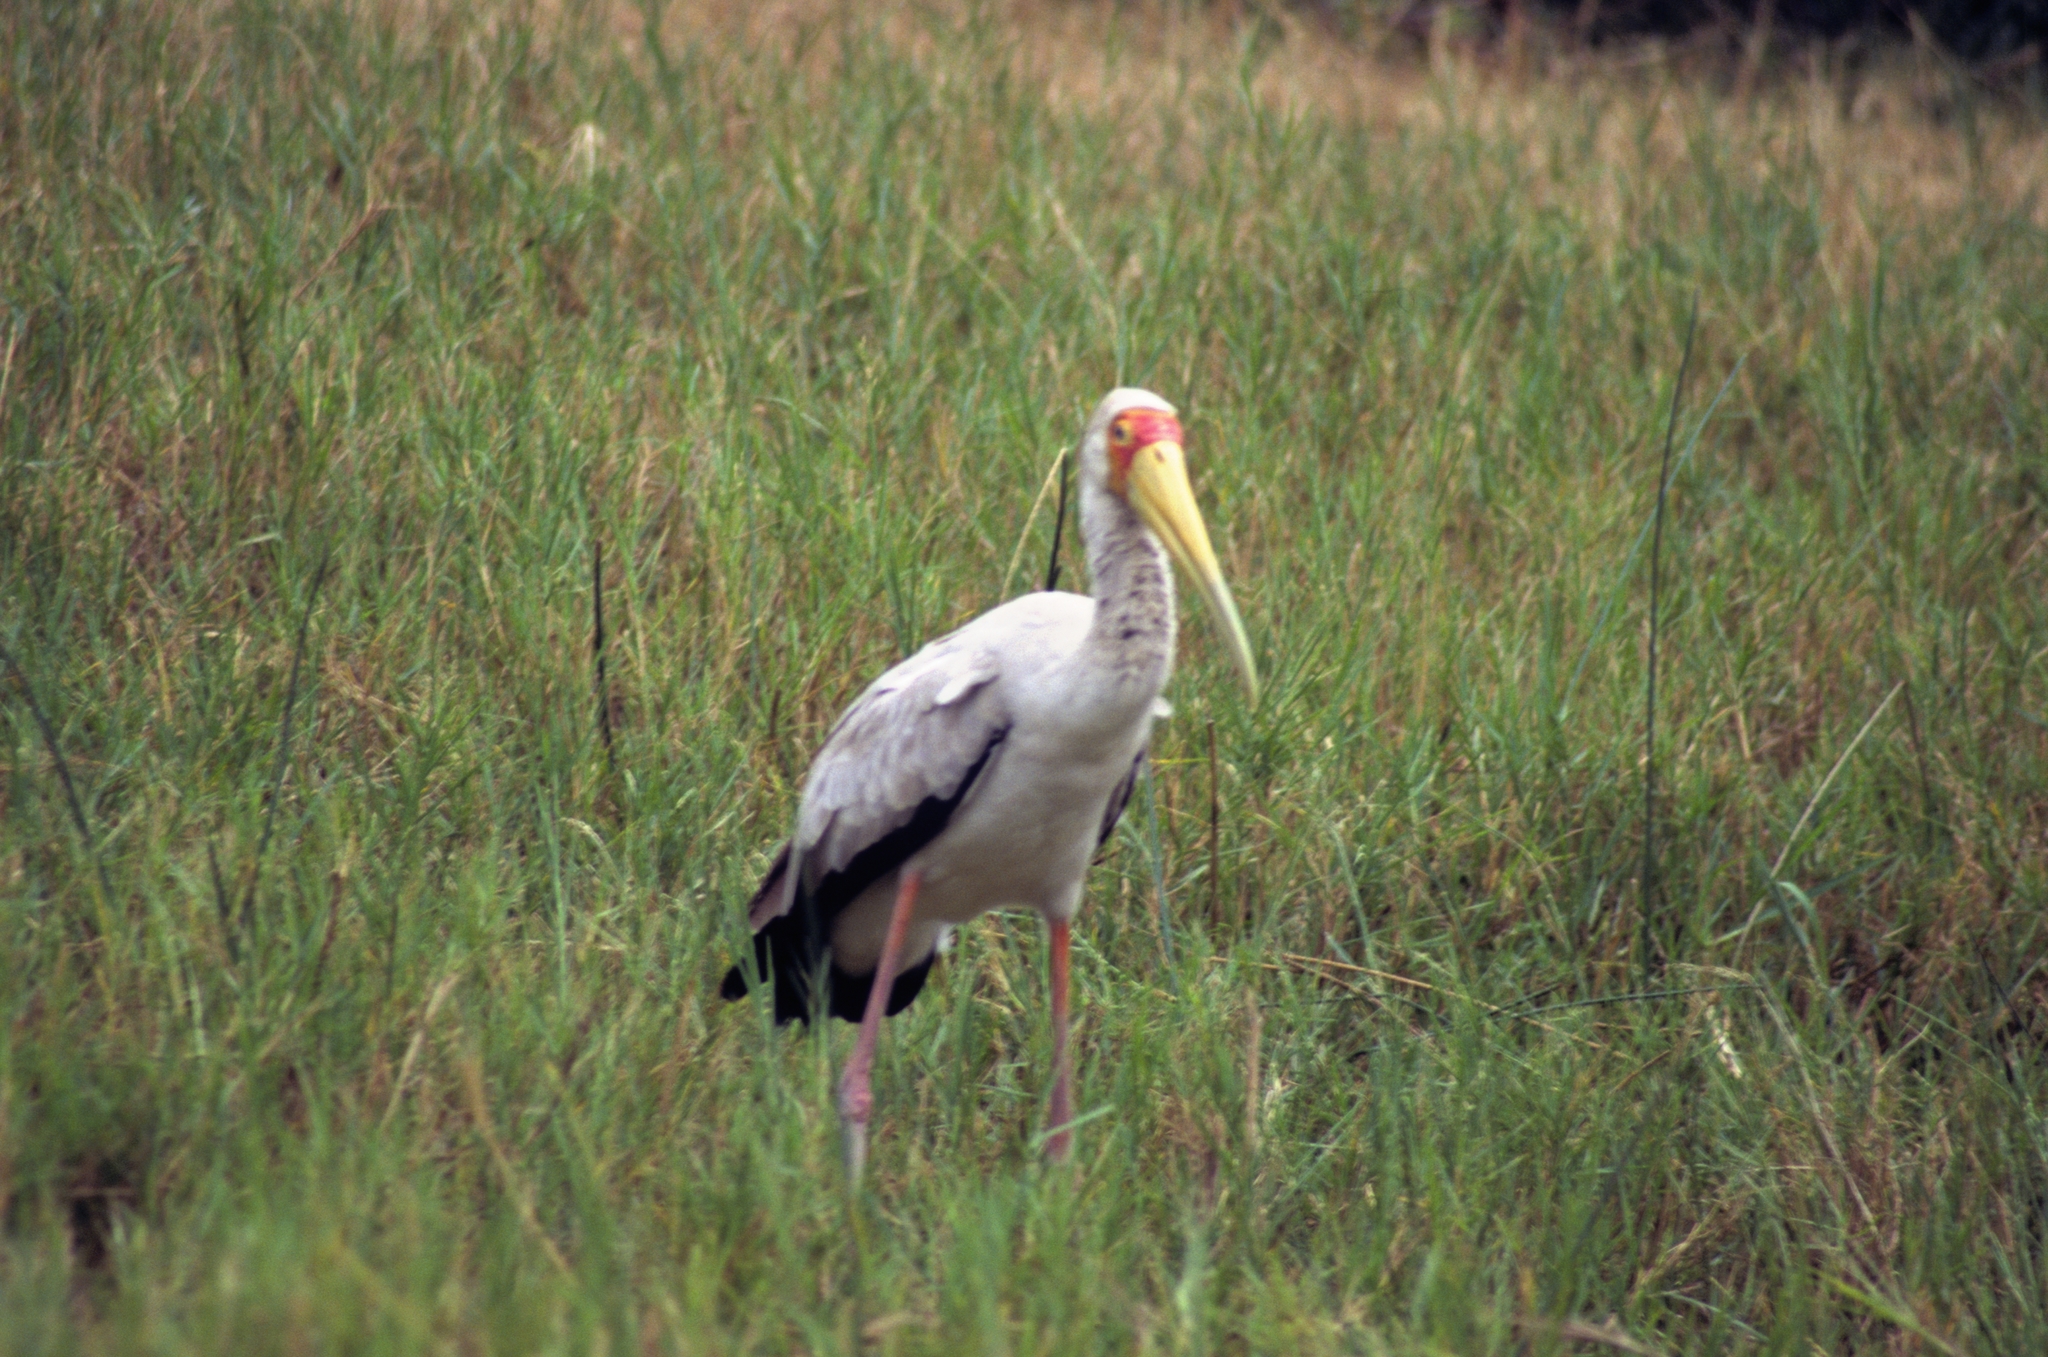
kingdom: Animalia
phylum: Chordata
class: Aves
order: Ciconiiformes
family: Ciconiidae
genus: Mycteria
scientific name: Mycteria ibis
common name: Yellow-billed stork
